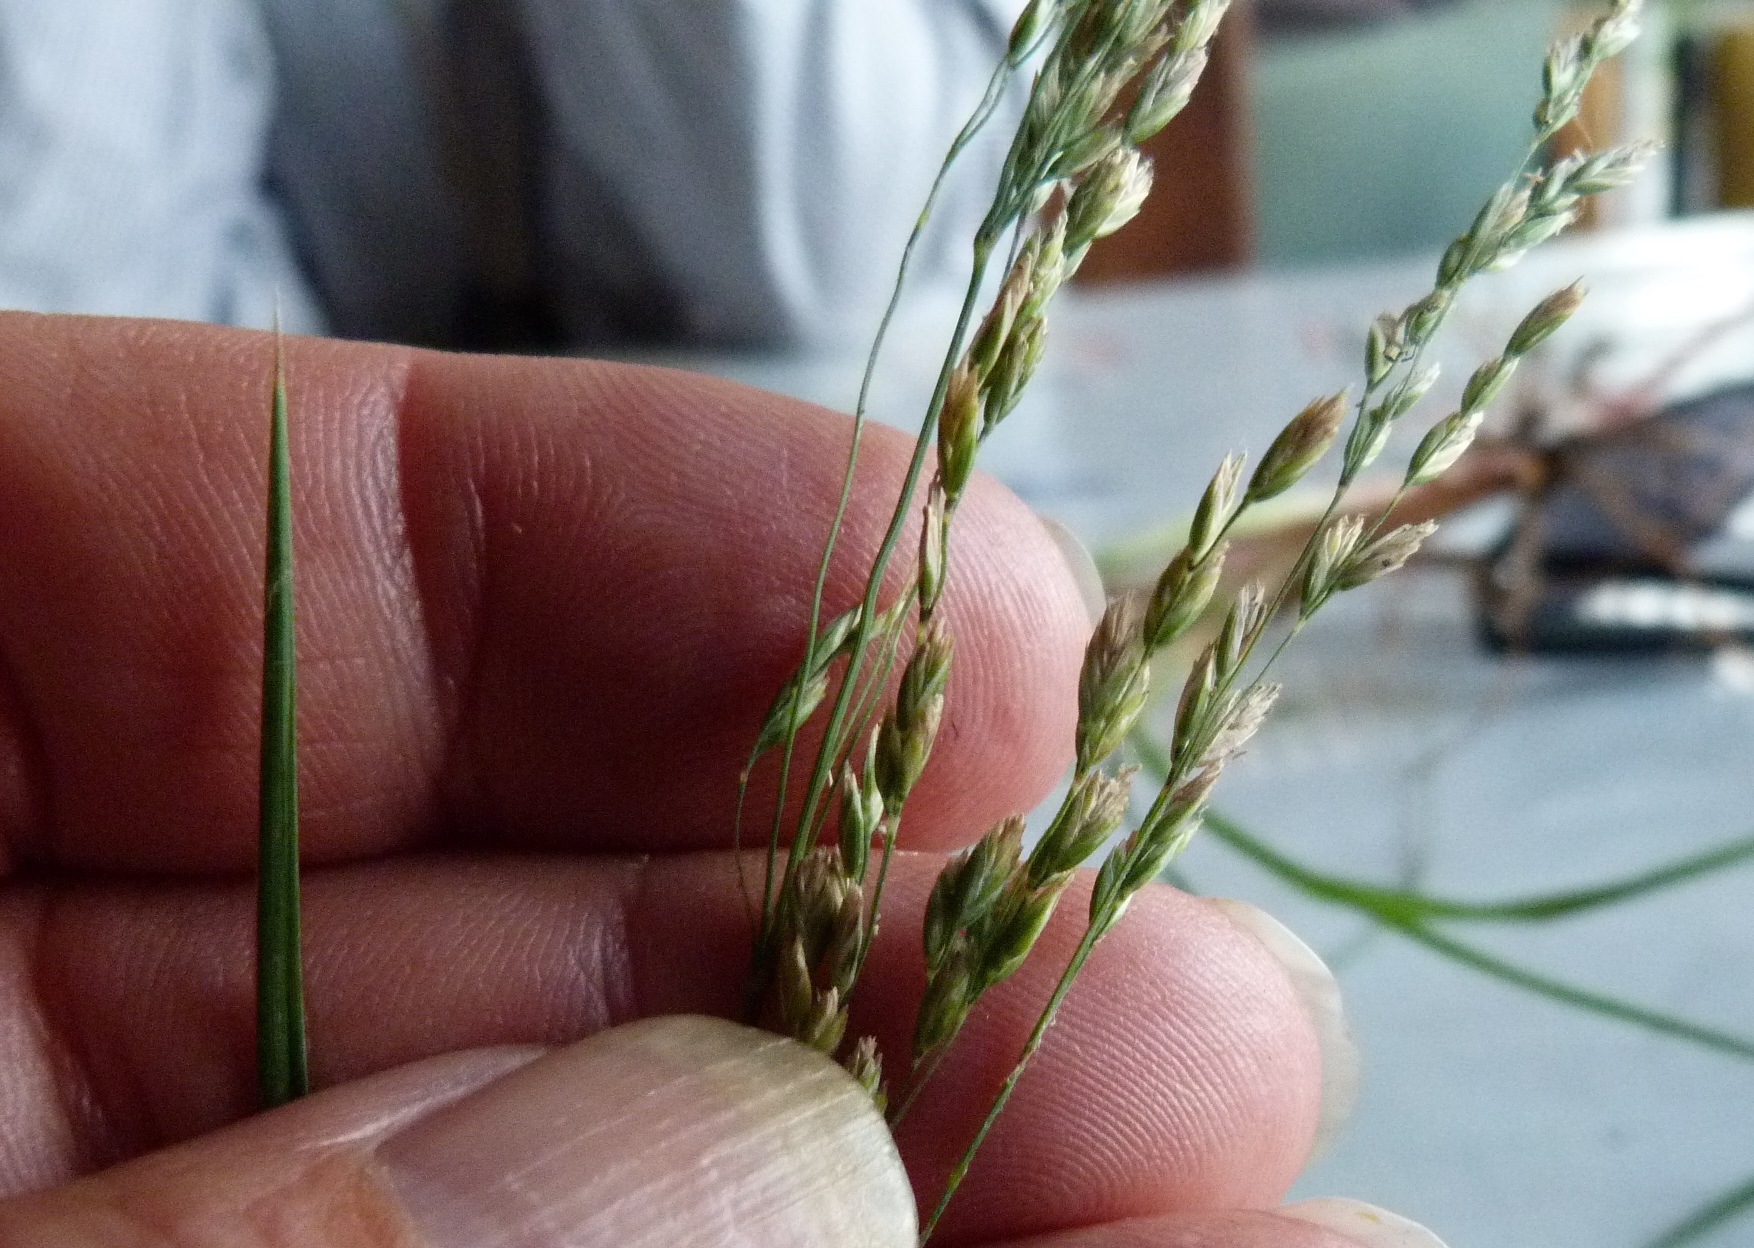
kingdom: Plantae
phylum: Tracheophyta
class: Liliopsida
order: Poales
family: Poaceae
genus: Poa
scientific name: Poa anceps
